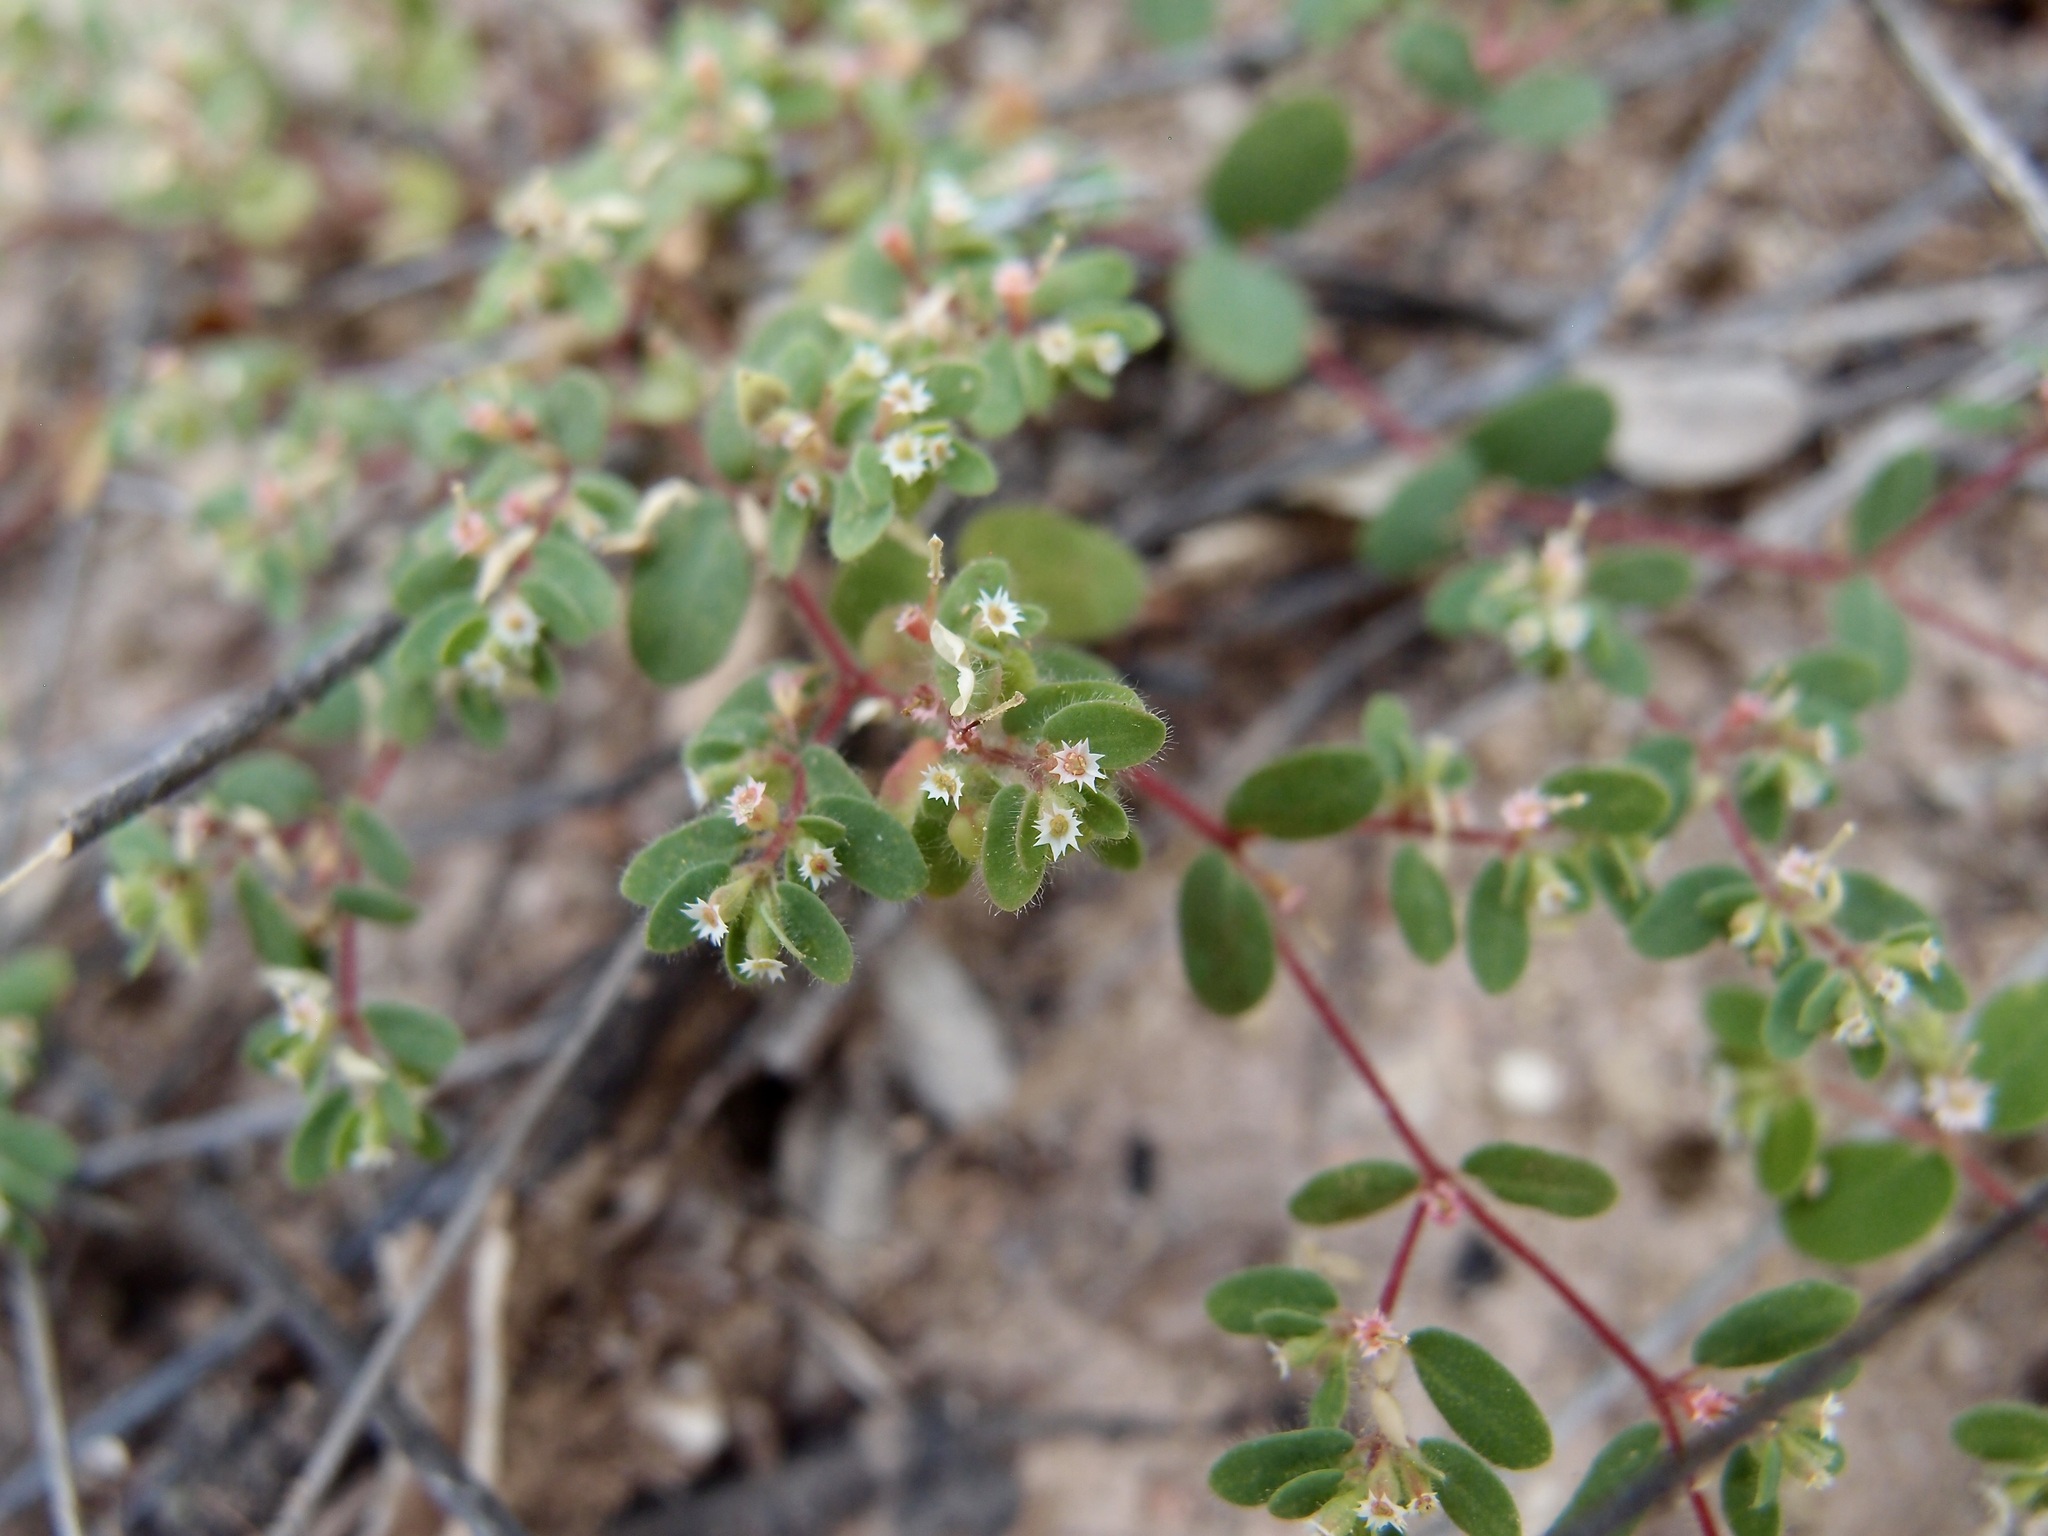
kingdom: Plantae
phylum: Tracheophyta
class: Magnoliopsida
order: Malpighiales
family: Euphorbiaceae
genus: Euphorbia
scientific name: Euphorbia setiloba
